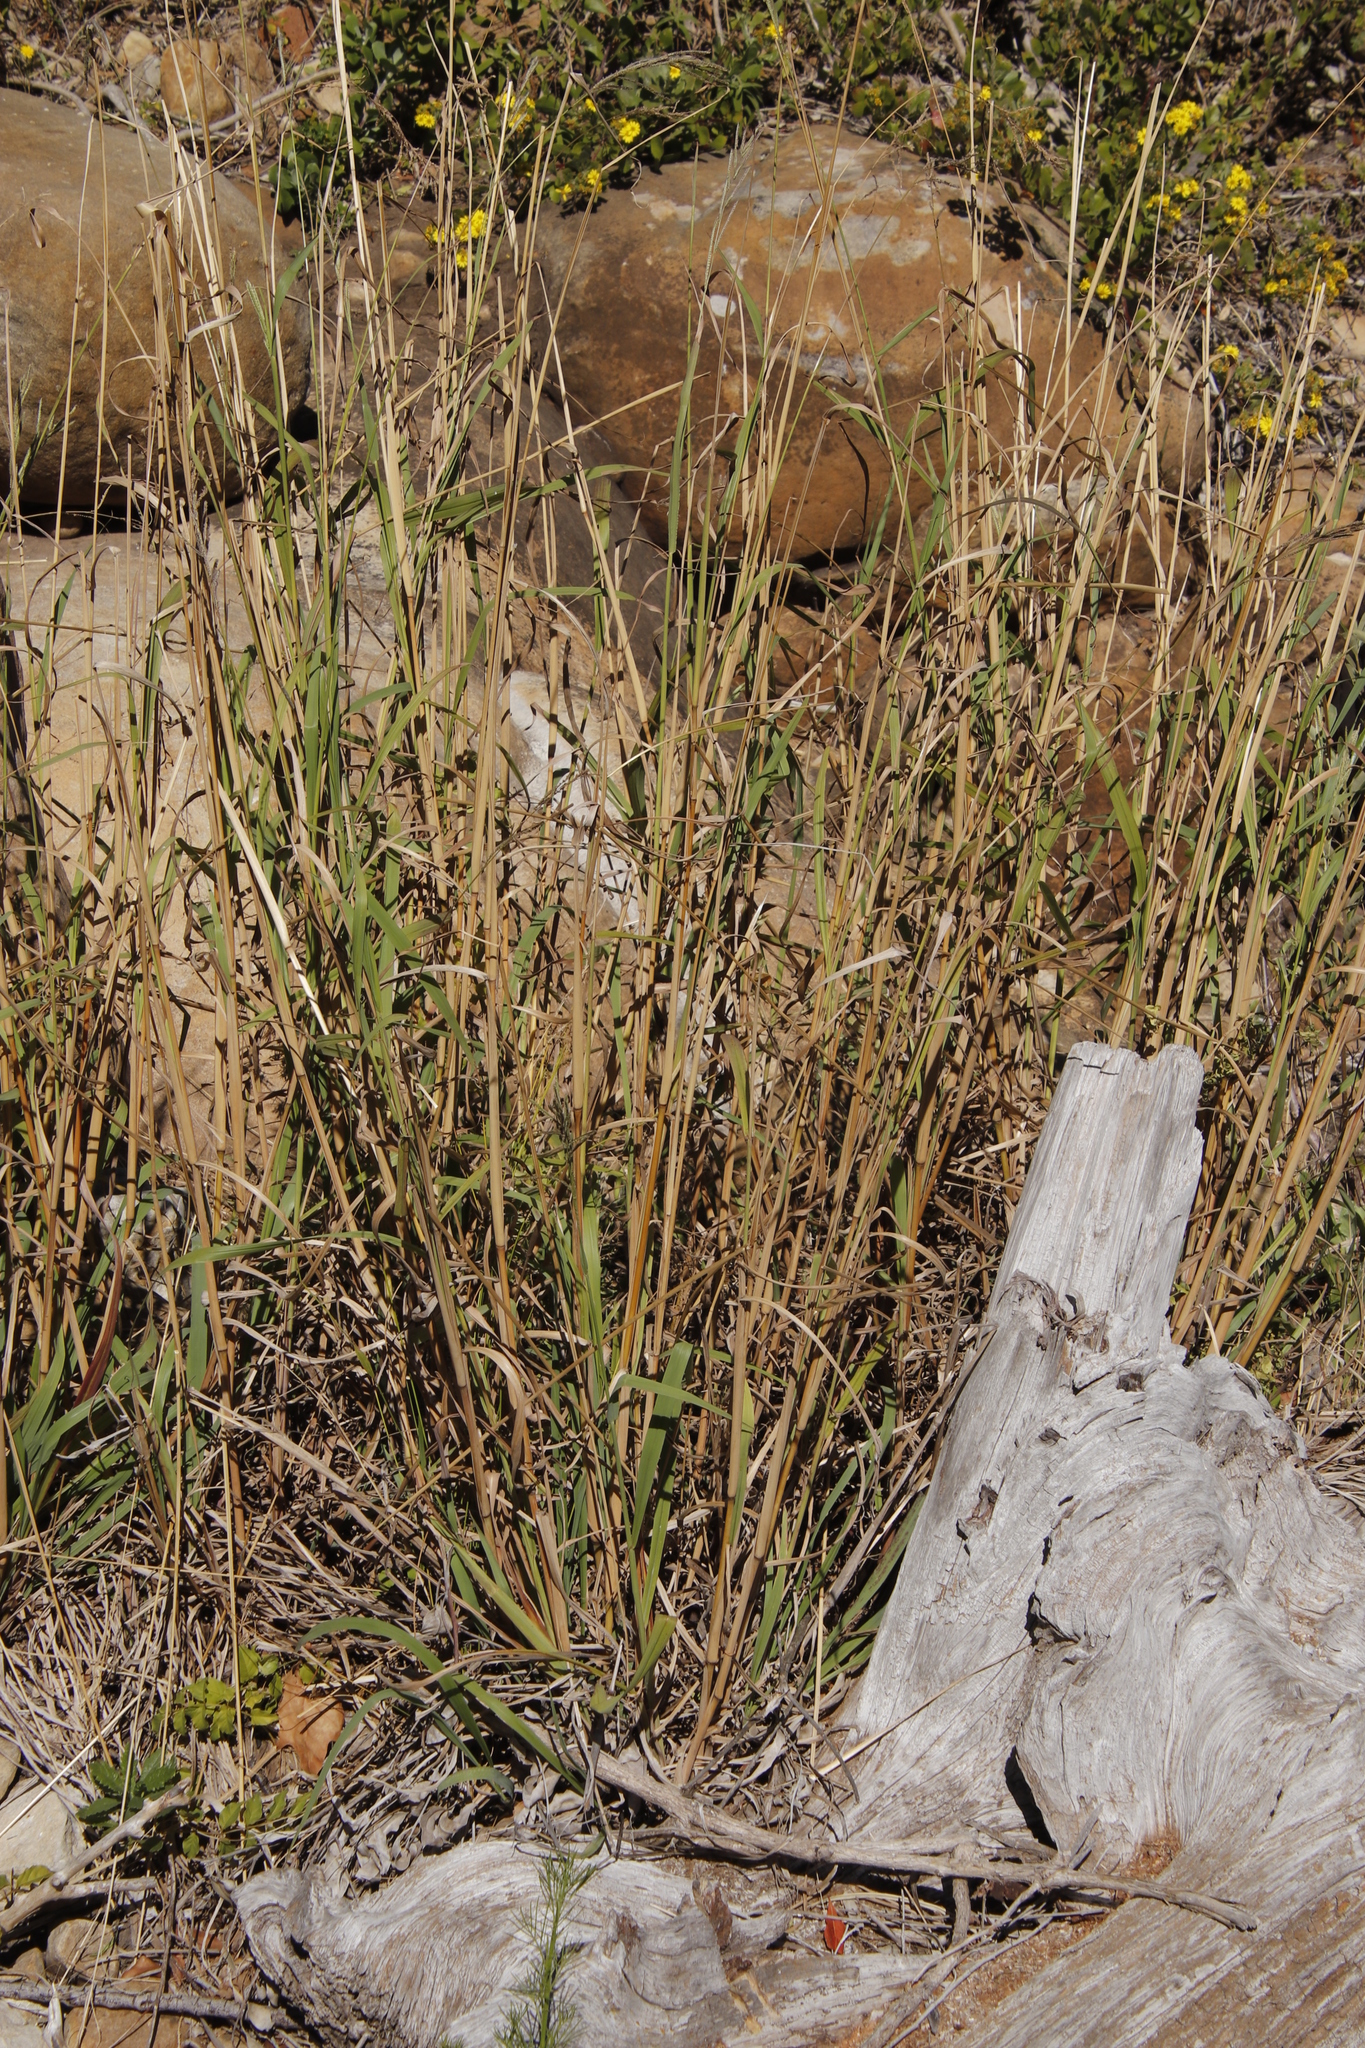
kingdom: Plantae
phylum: Tracheophyta
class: Liliopsida
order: Poales
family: Poaceae
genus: Paspalum
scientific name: Paspalum urvillei
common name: Vasey's grass
